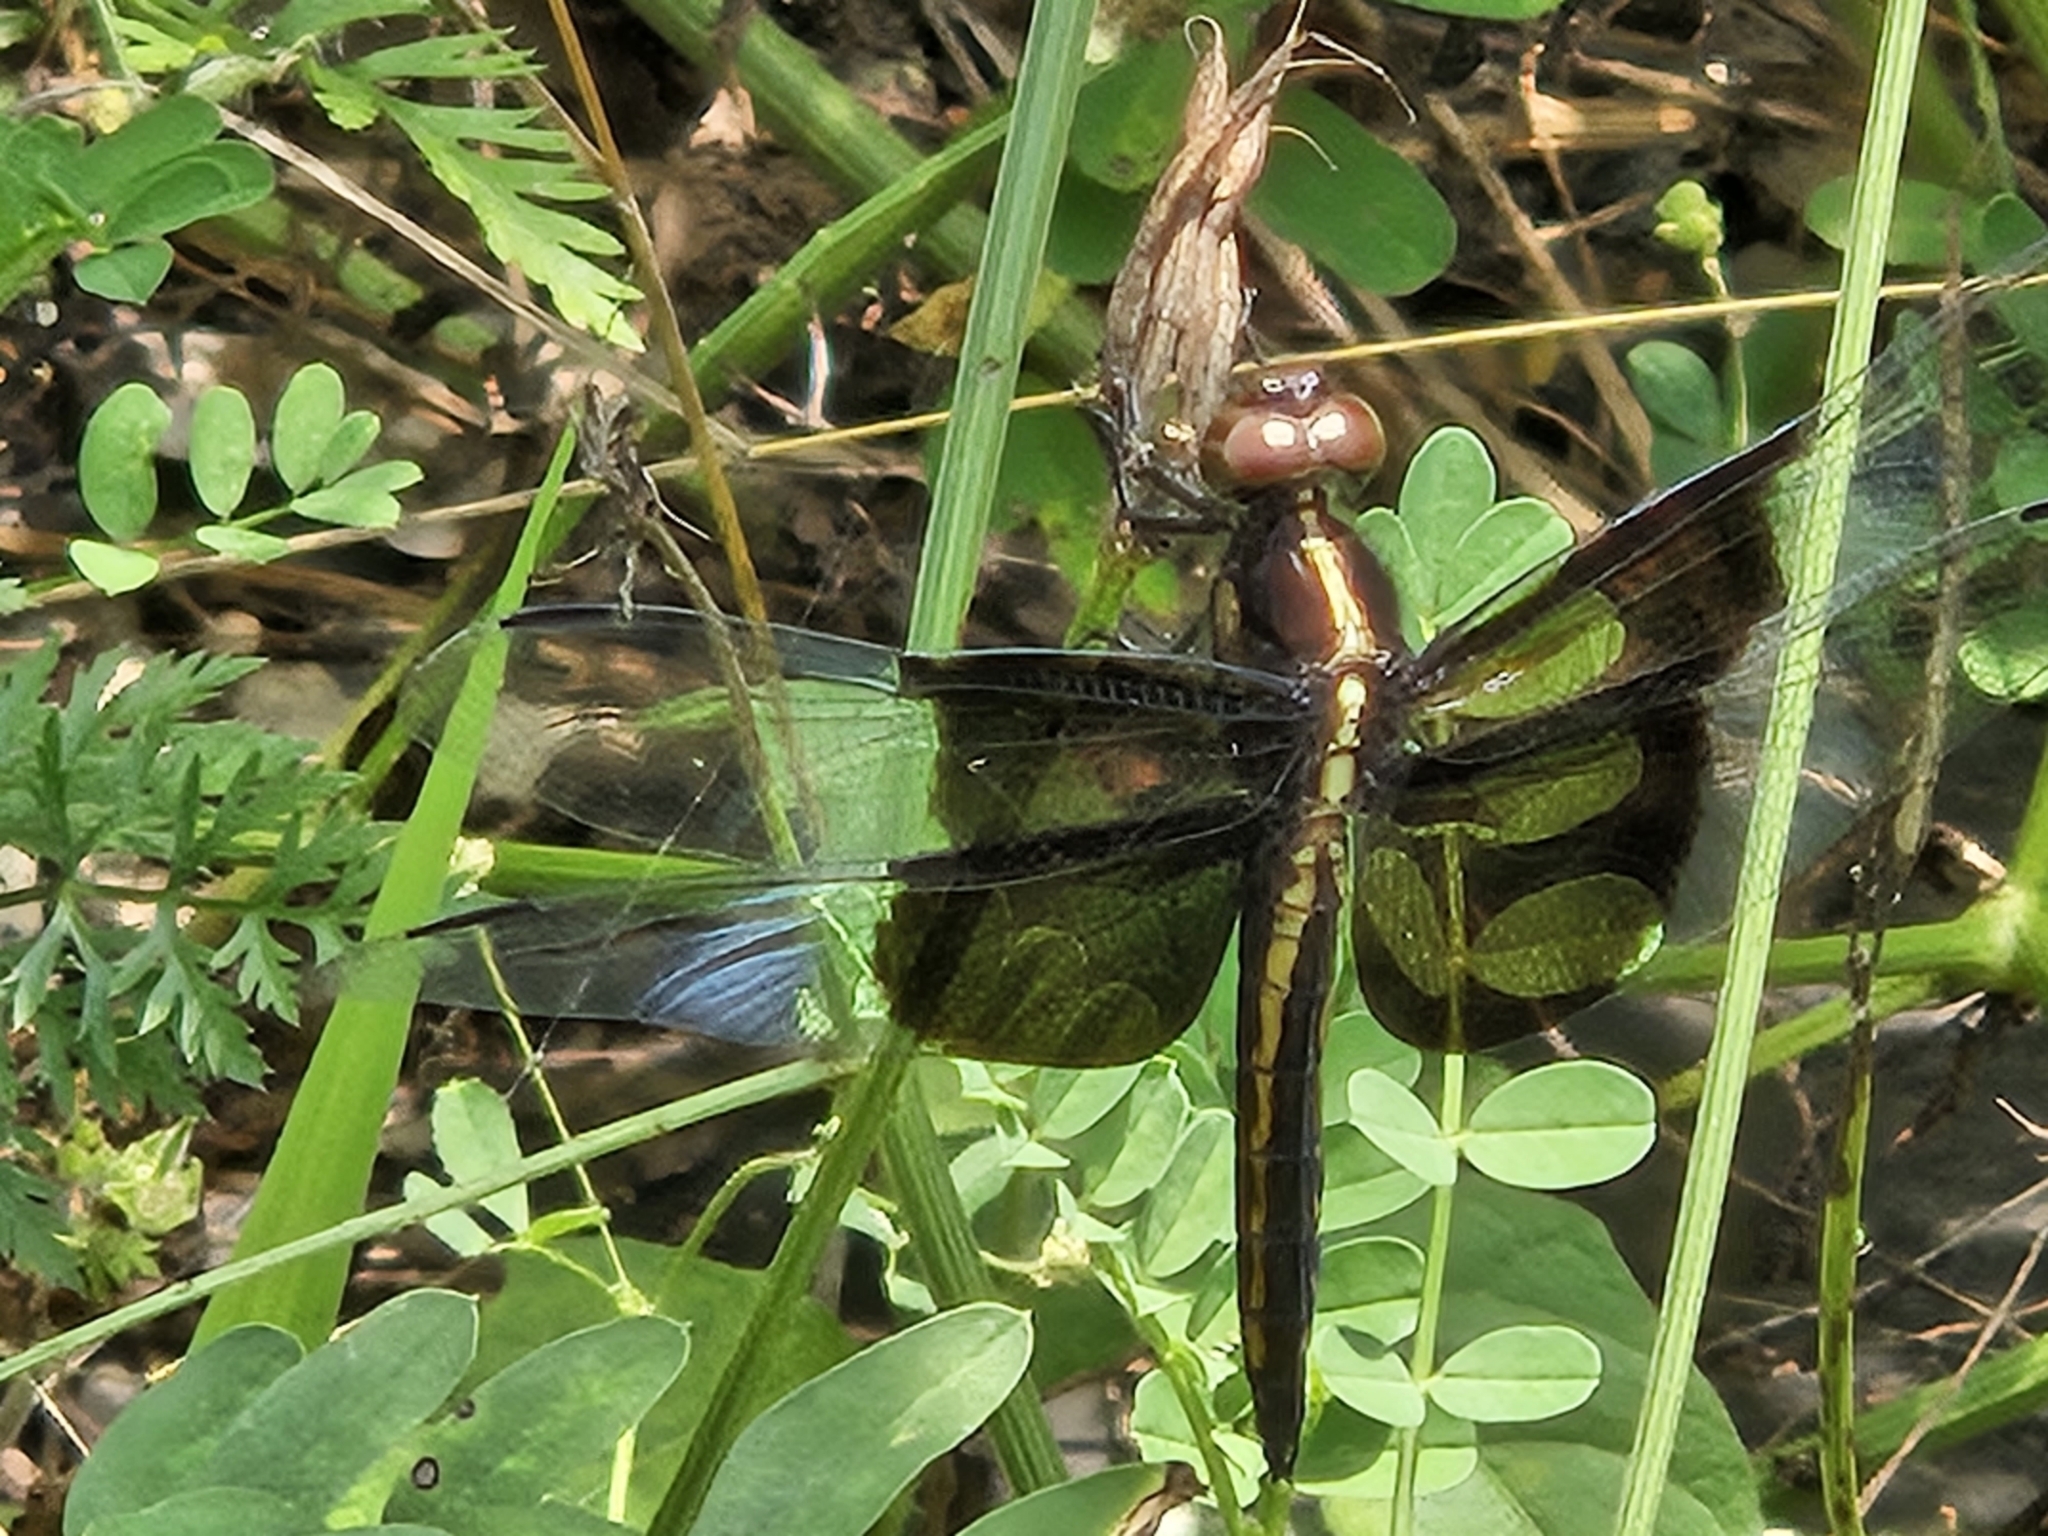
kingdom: Animalia
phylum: Arthropoda
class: Insecta
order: Odonata
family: Libellulidae
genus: Libellula
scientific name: Libellula luctuosa
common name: Widow skimmer
